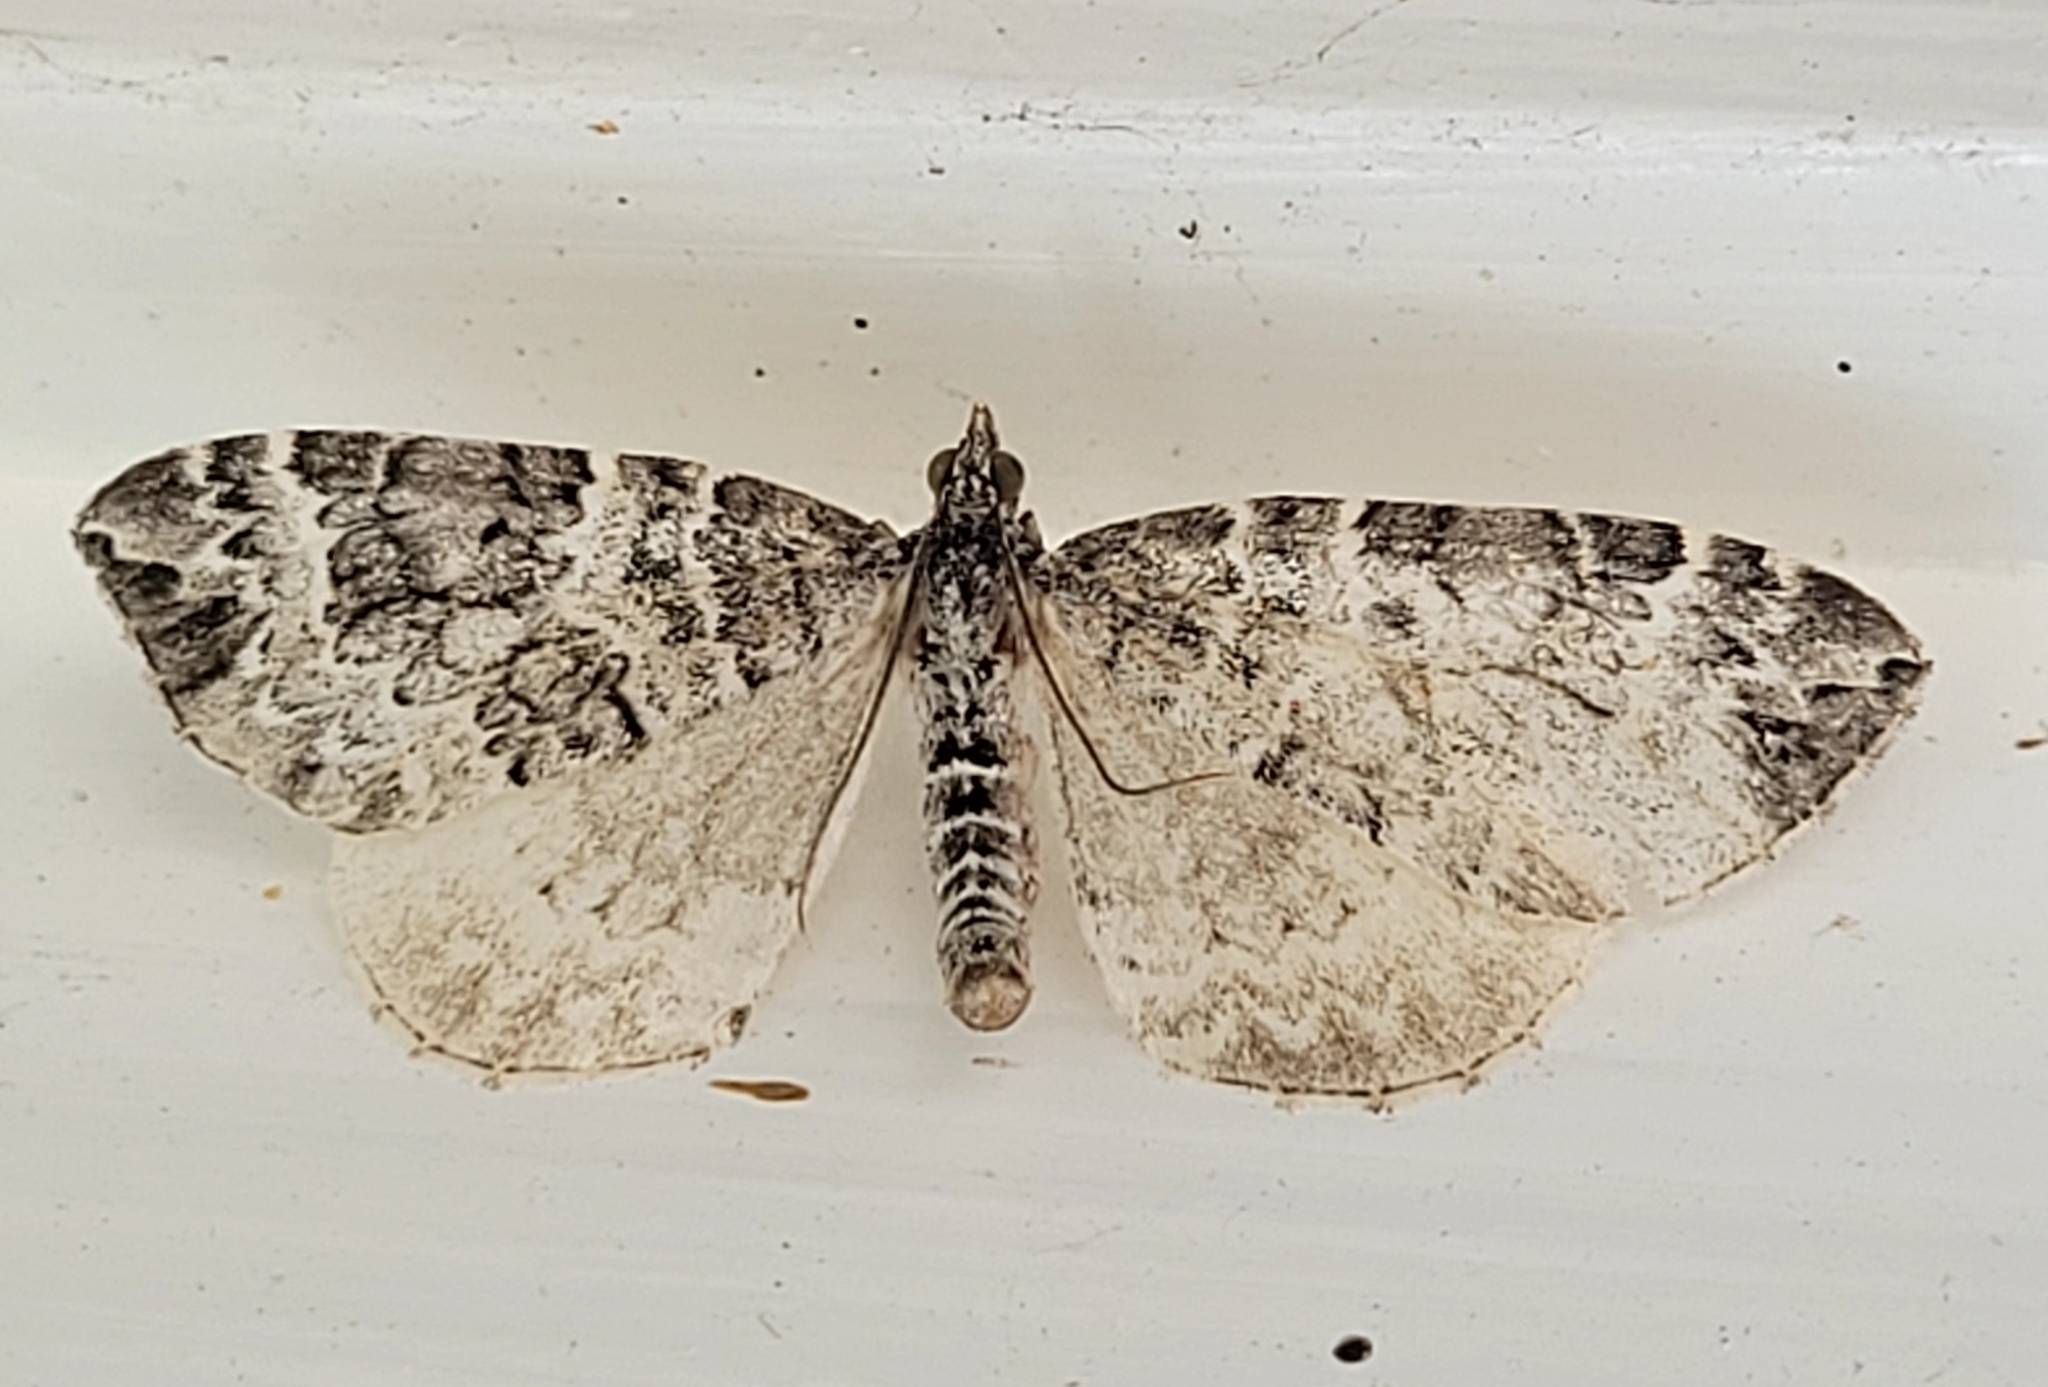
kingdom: Animalia
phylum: Arthropoda
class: Insecta
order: Lepidoptera
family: Geometridae
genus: Eulithis
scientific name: Eulithis explanata
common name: White eulithis
